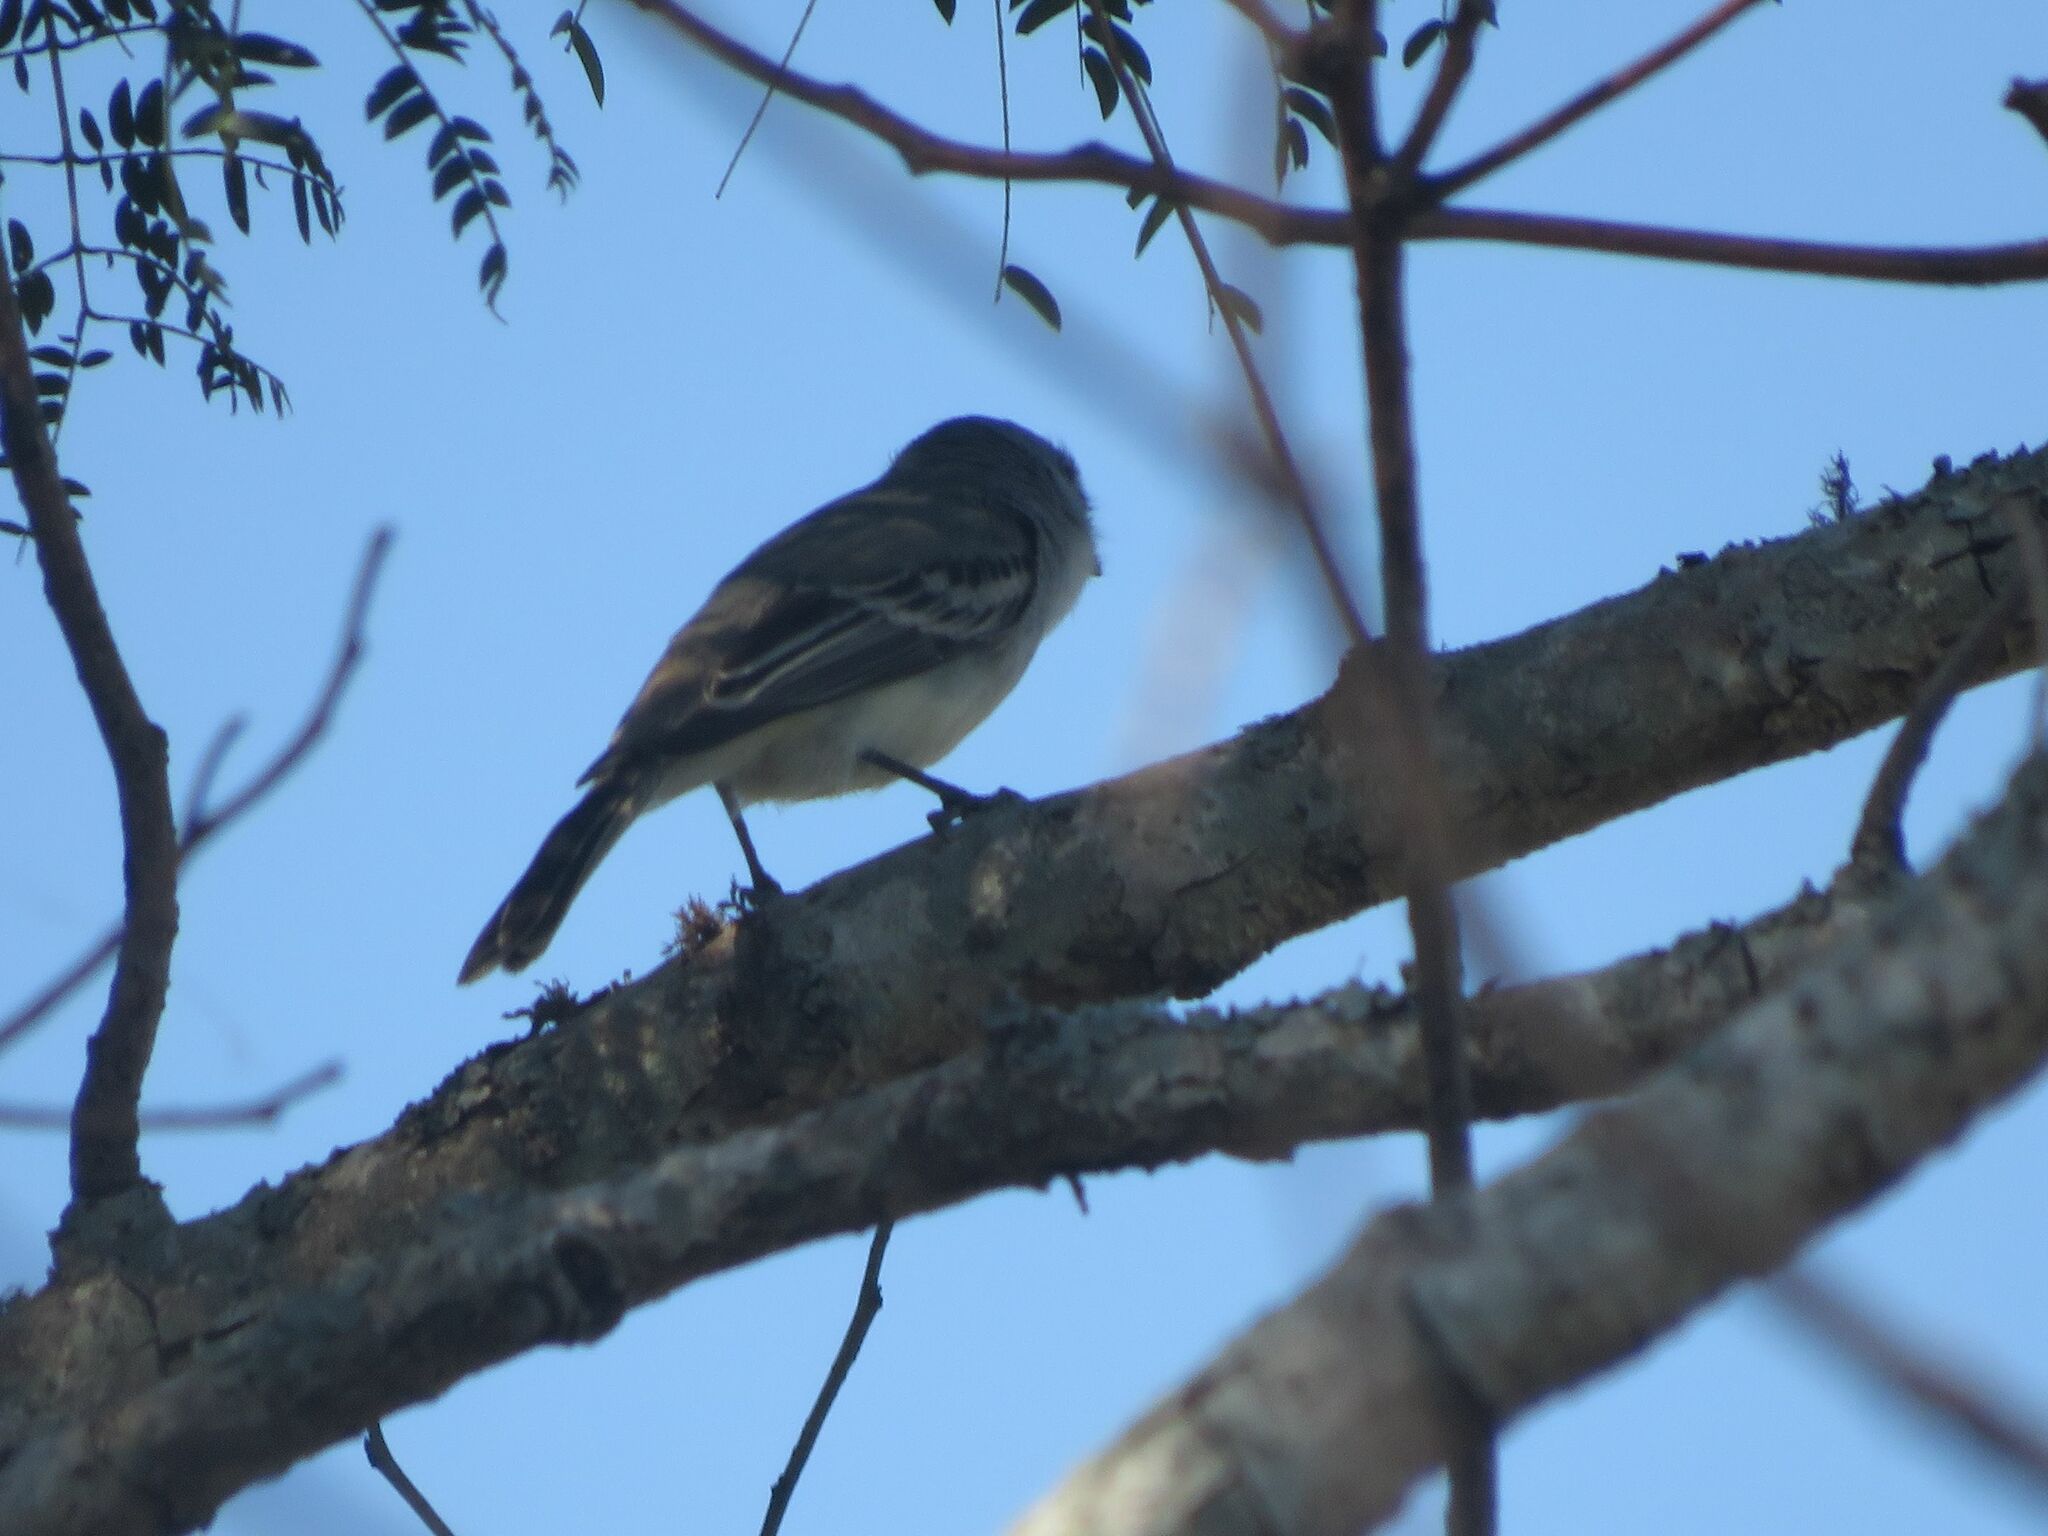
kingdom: Animalia
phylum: Chordata
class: Aves
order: Passeriformes
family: Tyrannidae
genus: Suiriri
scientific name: Suiriri suiriri
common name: Suiriri flycatcher
